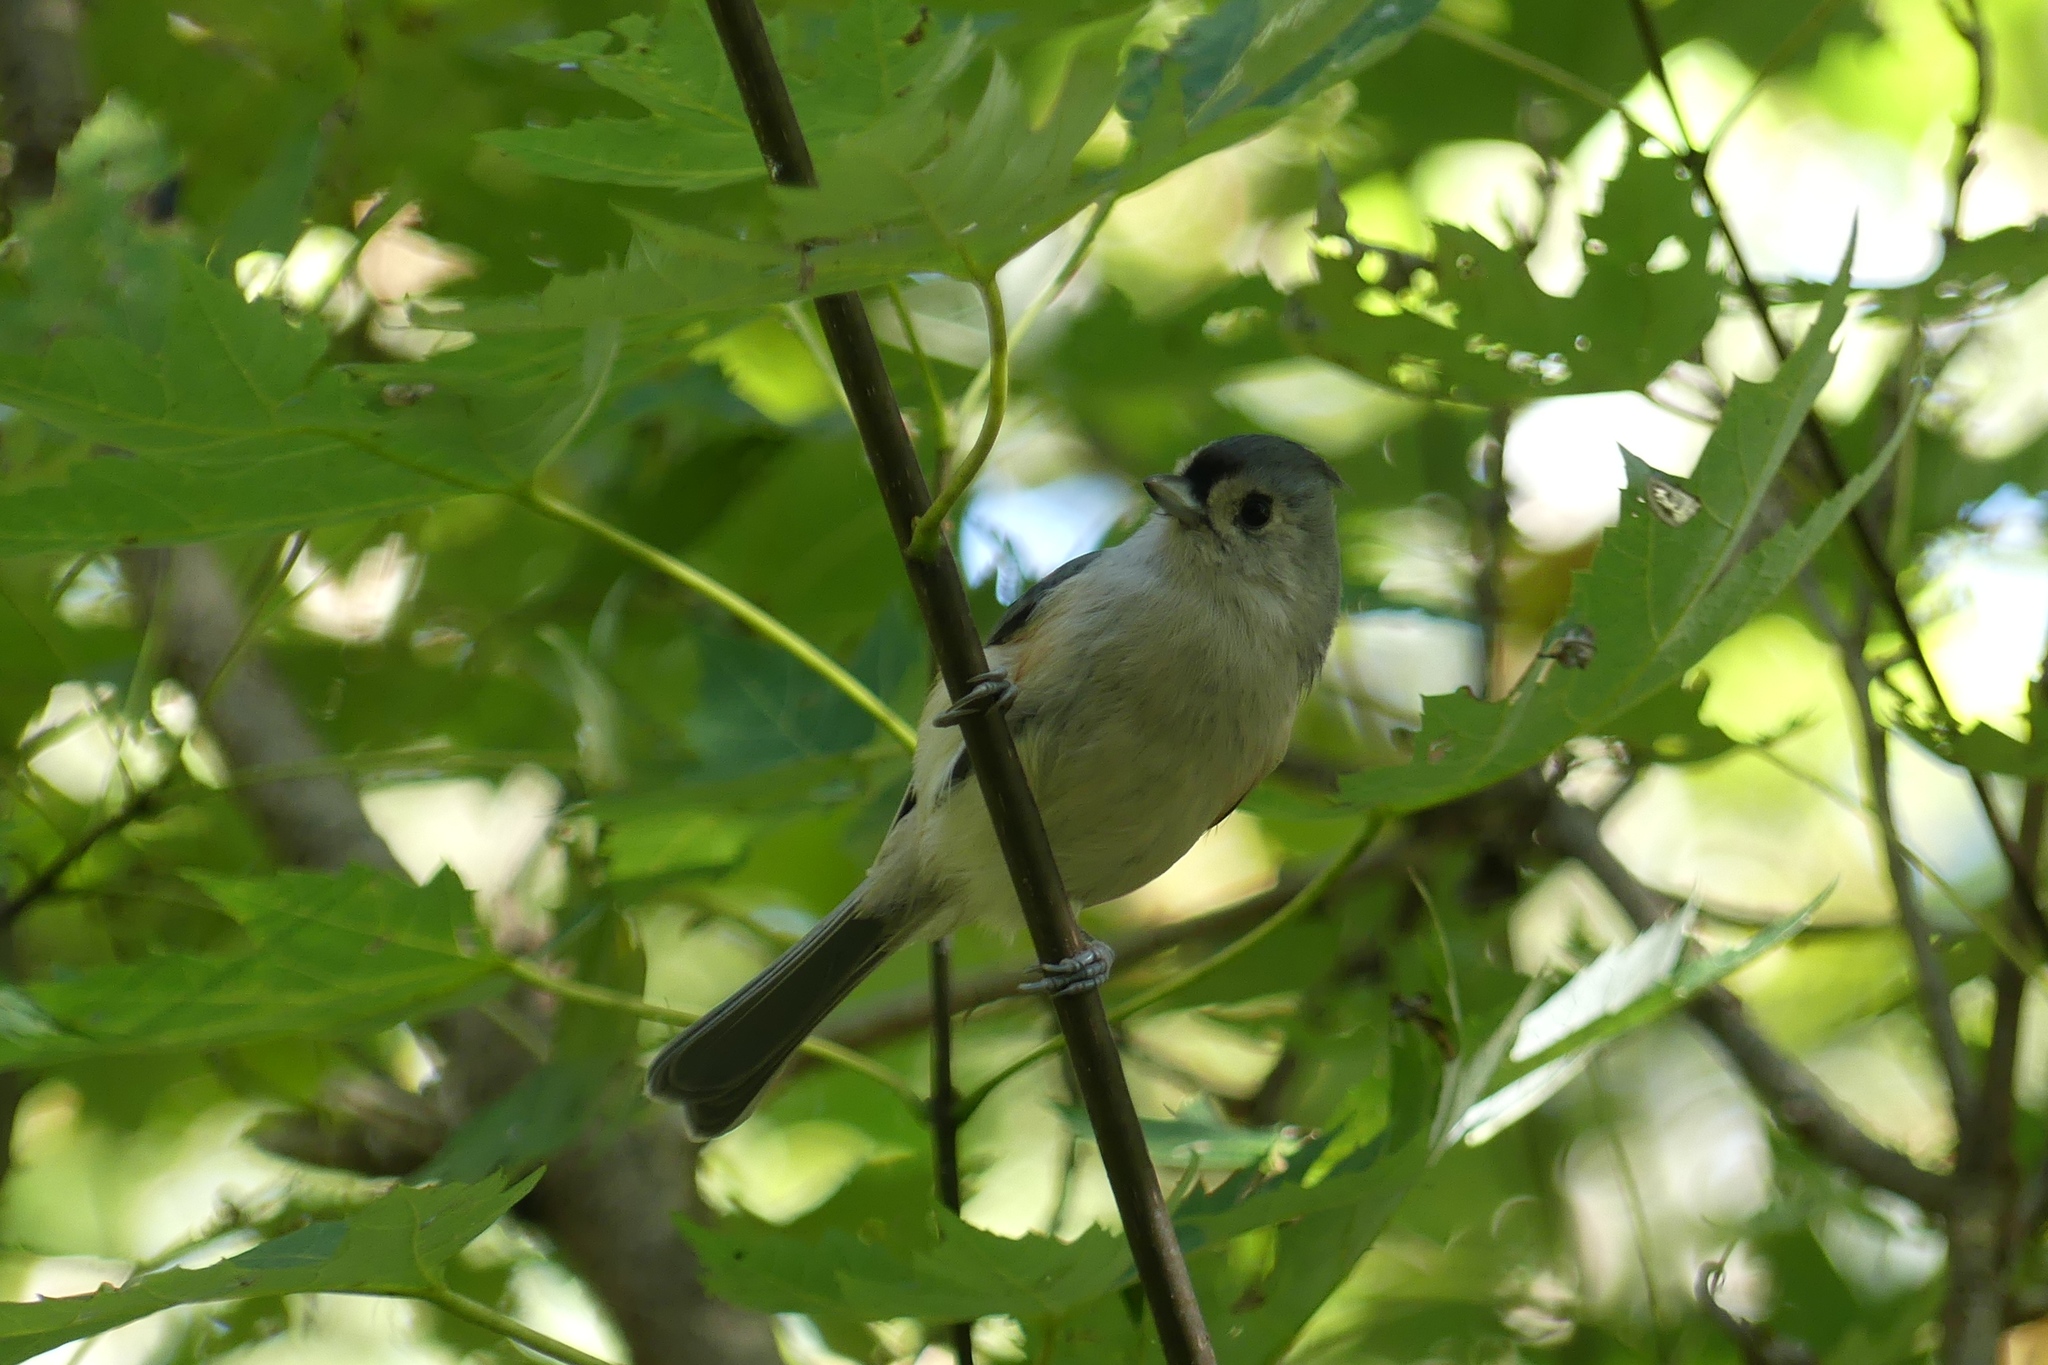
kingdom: Animalia
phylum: Chordata
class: Aves
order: Passeriformes
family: Paridae
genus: Baeolophus
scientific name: Baeolophus bicolor
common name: Tufted titmouse
